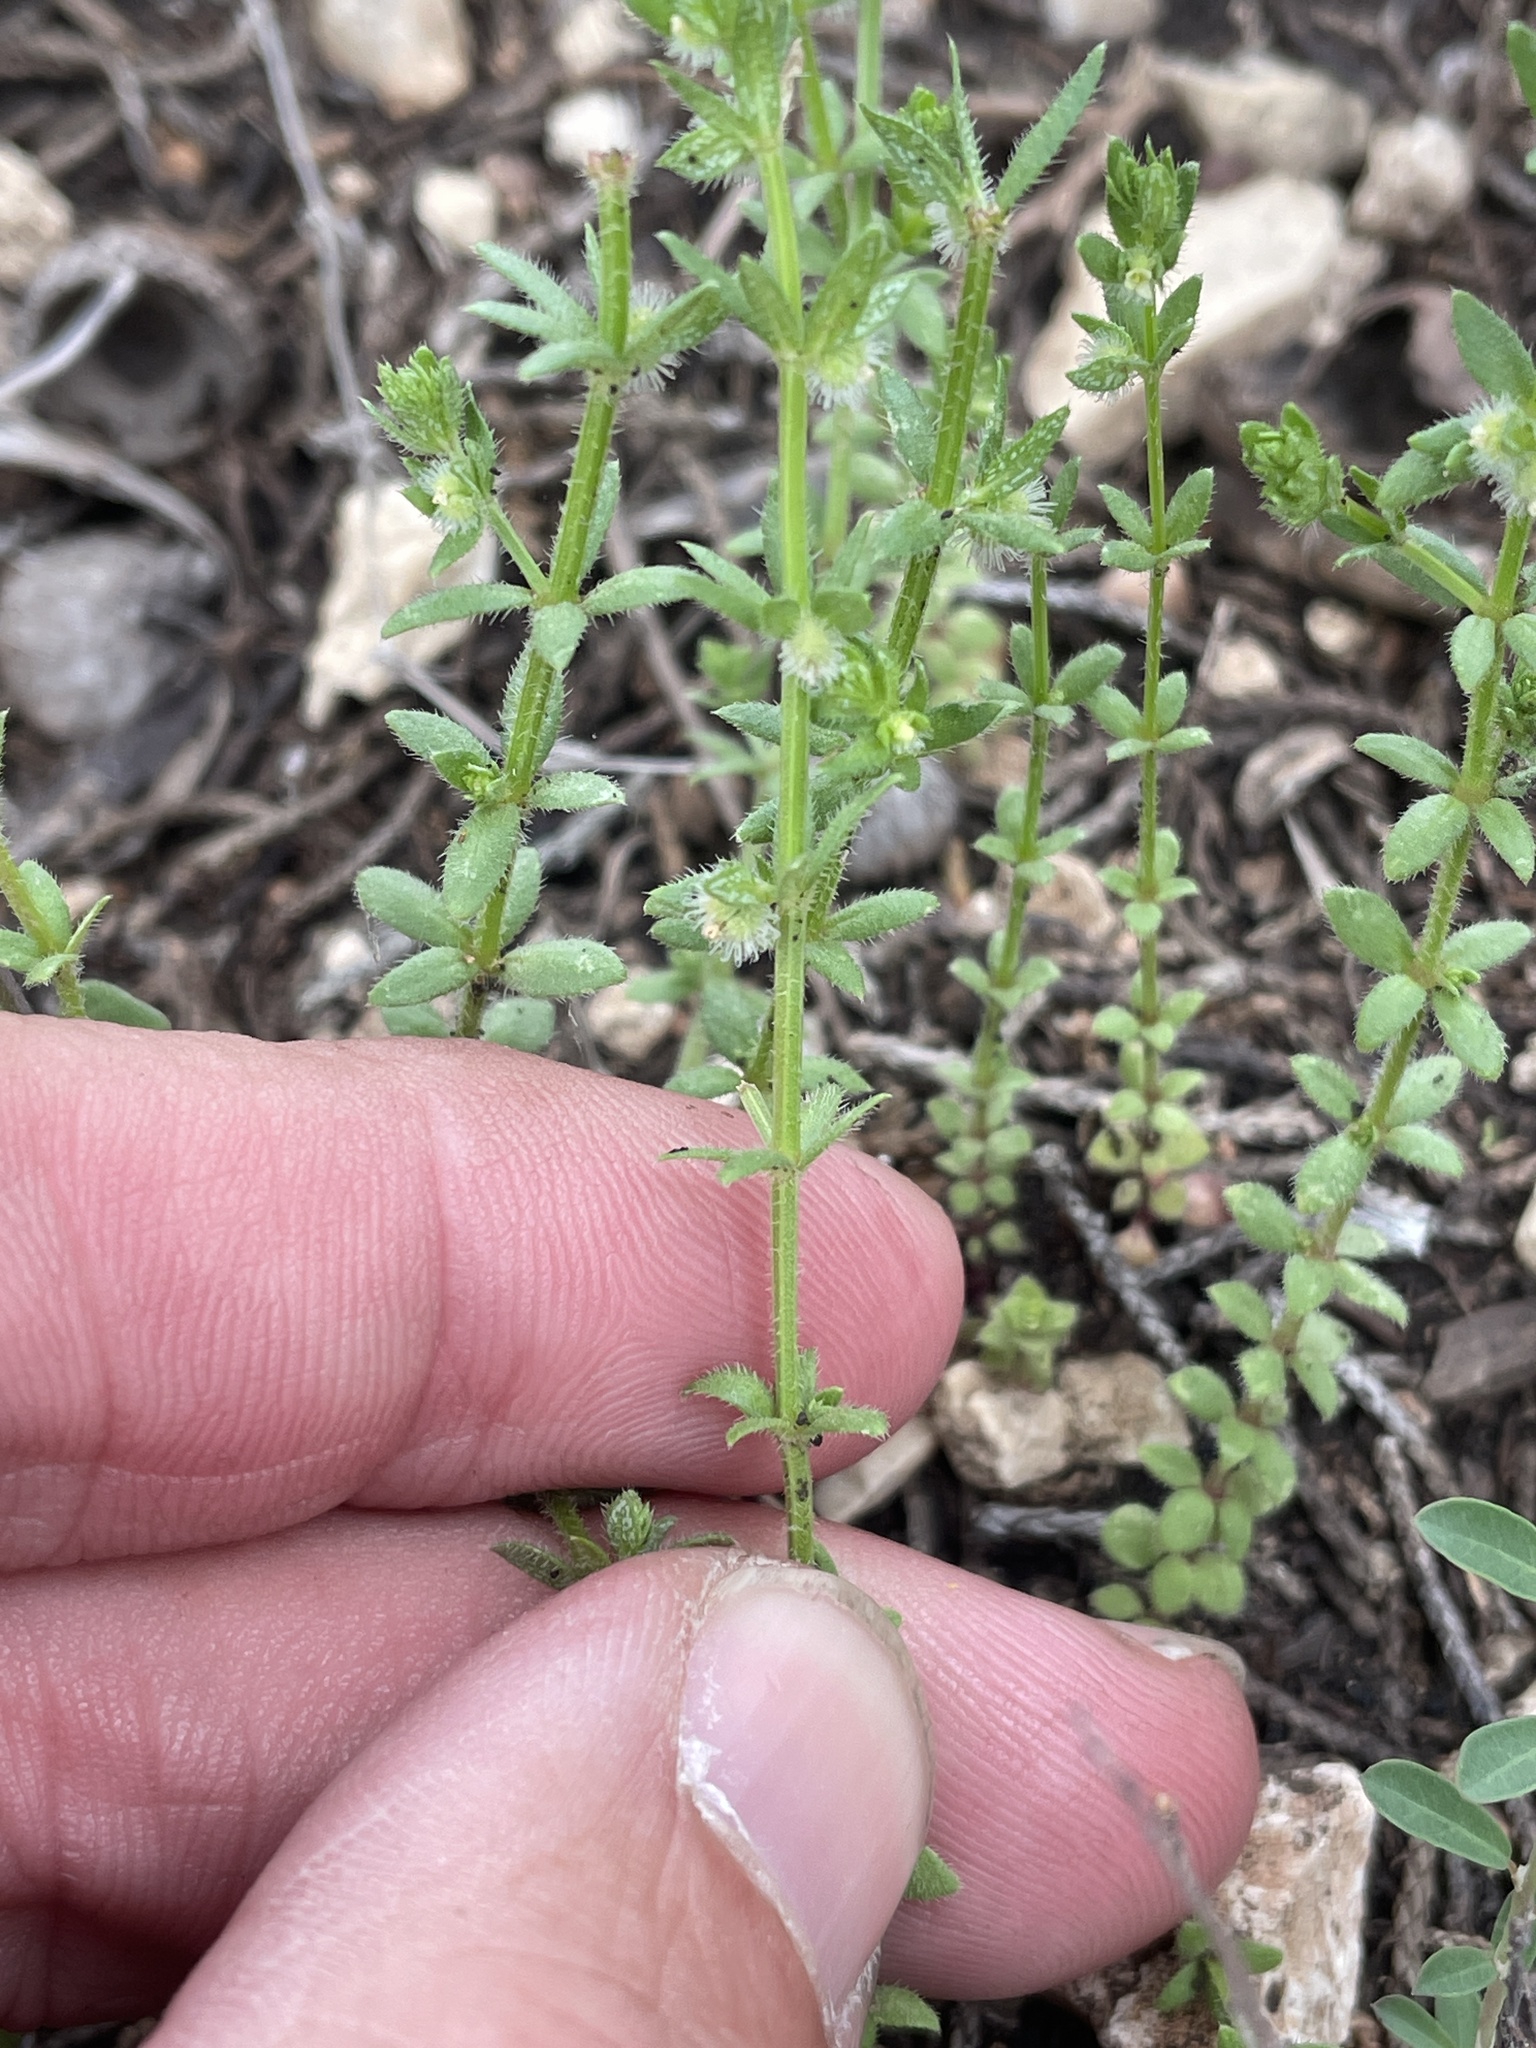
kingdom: Plantae
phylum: Tracheophyta
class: Magnoliopsida
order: Gentianales
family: Rubiaceae
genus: Galium
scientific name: Galium virgatum
